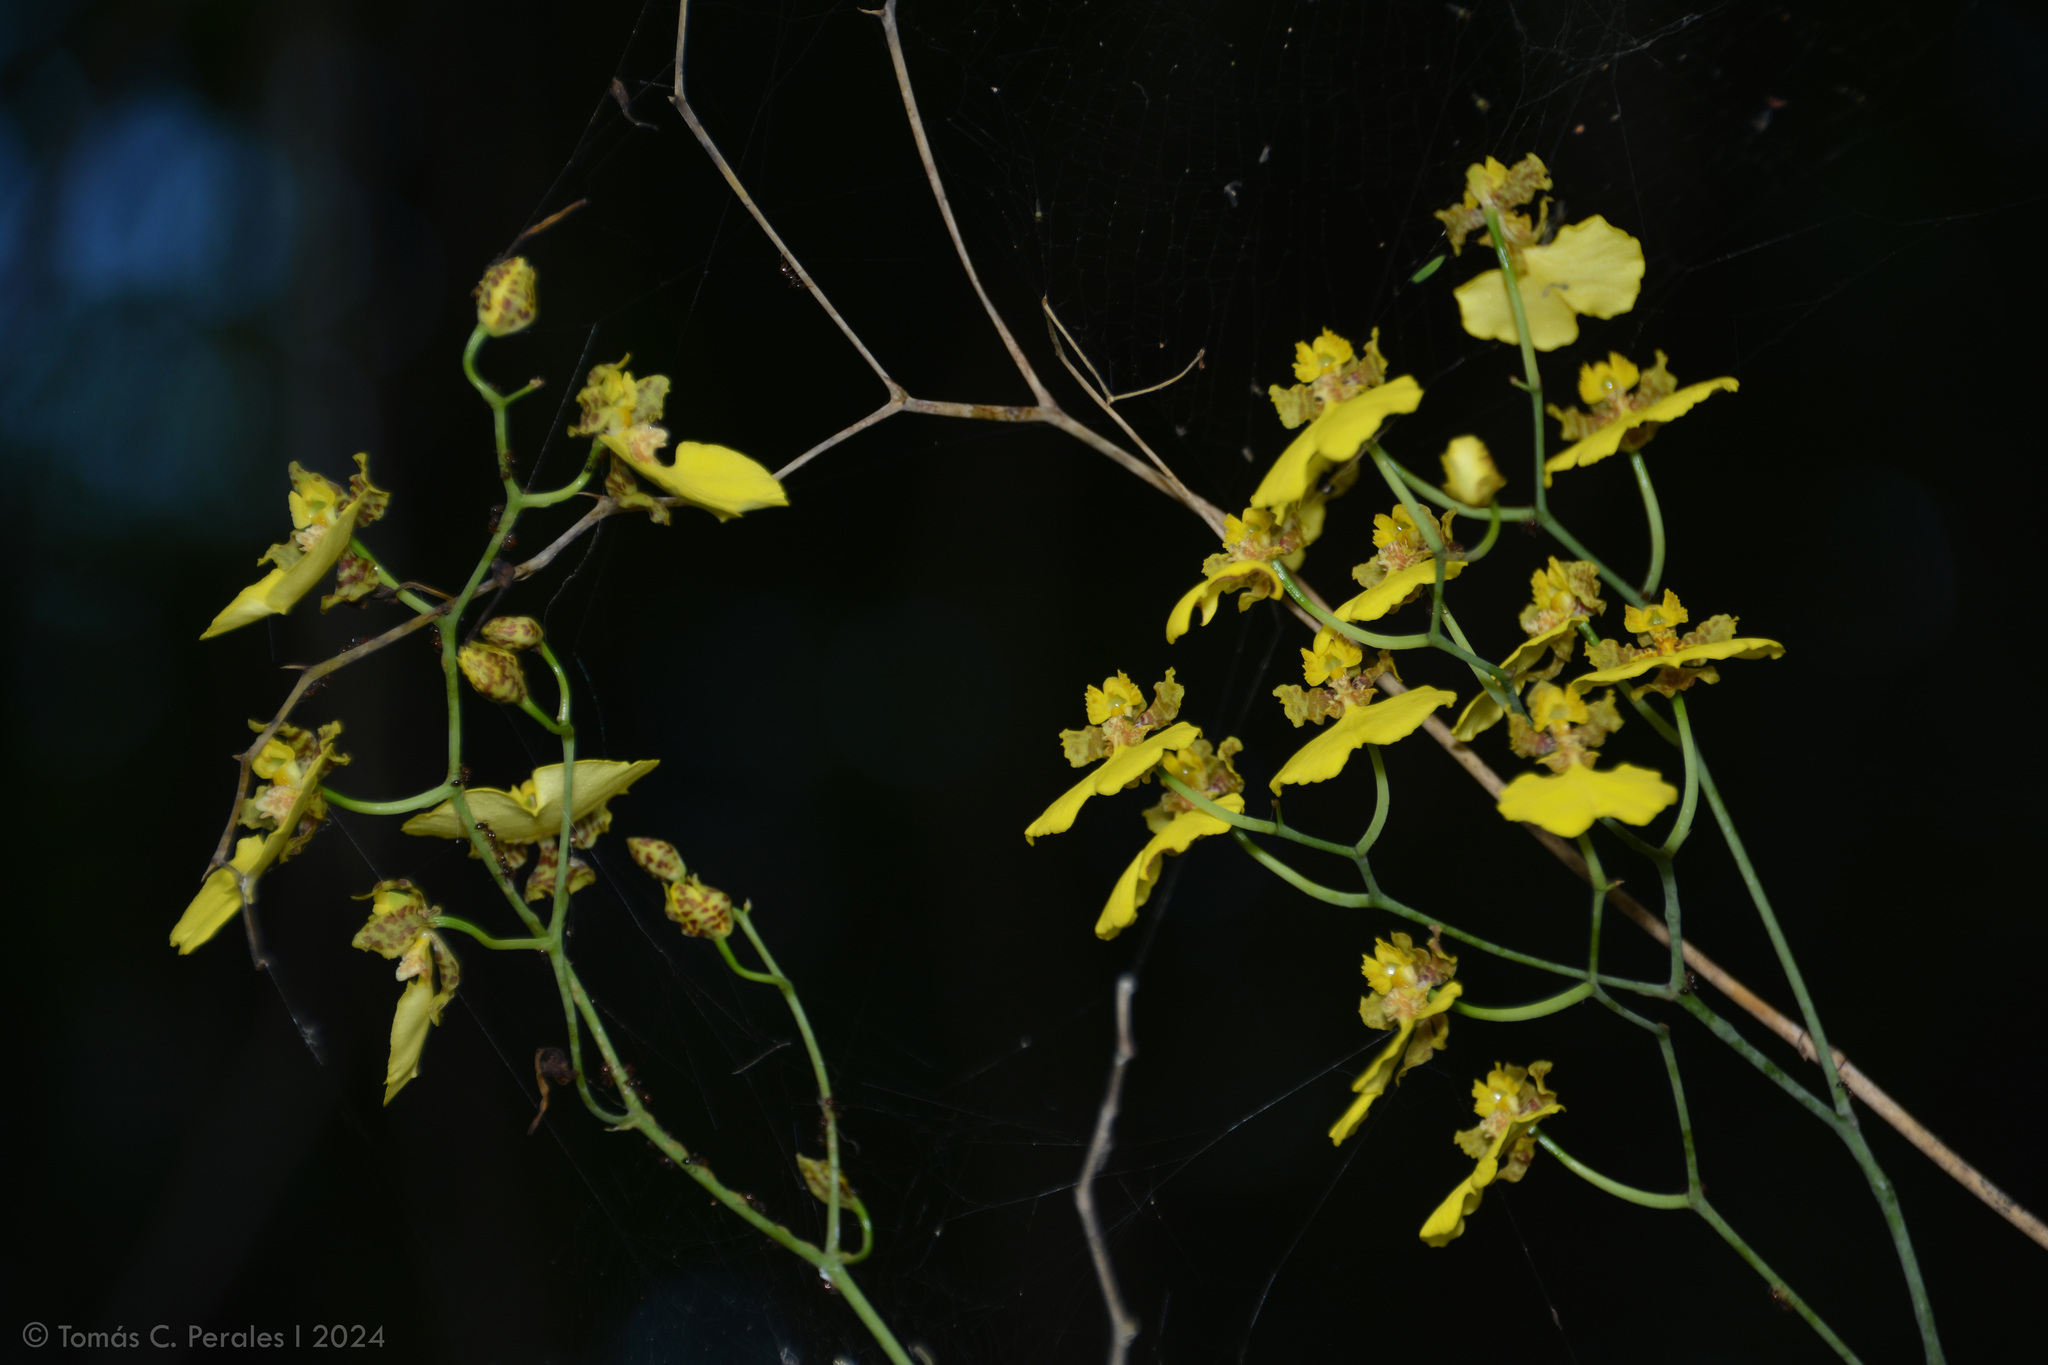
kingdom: Plantae
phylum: Tracheophyta
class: Liliopsida
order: Asparagales
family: Orchidaceae
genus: Gomesa
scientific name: Gomesa bifolia
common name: Dancing ladies
